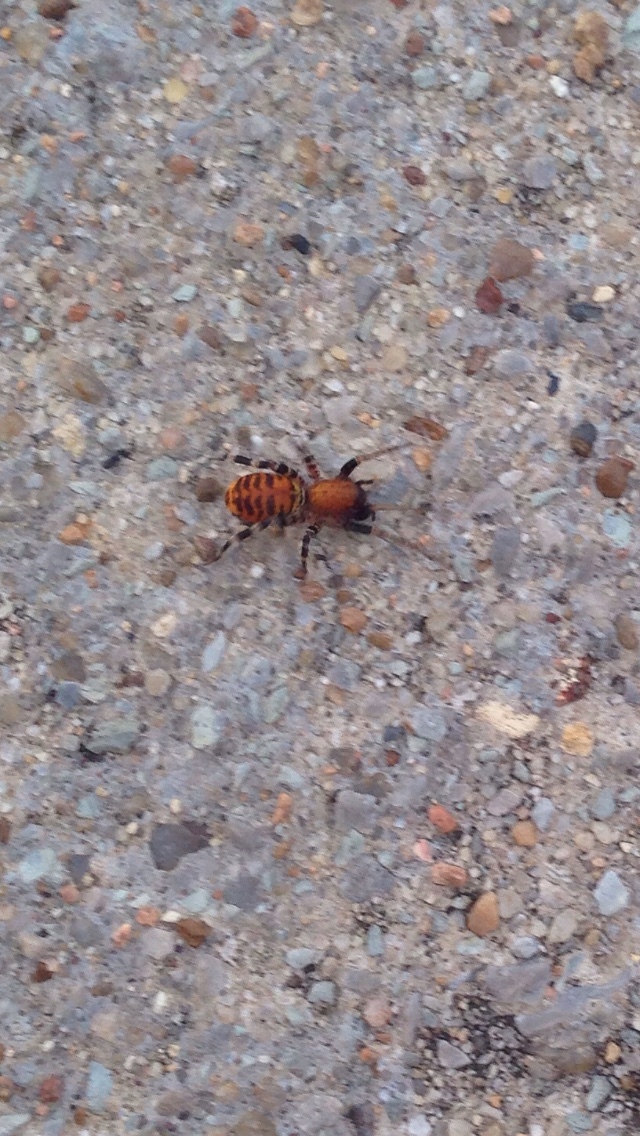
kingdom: Animalia
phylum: Arthropoda
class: Arachnida
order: Araneae
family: Corinnidae
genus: Castianeira
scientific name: Castianeira amoena
